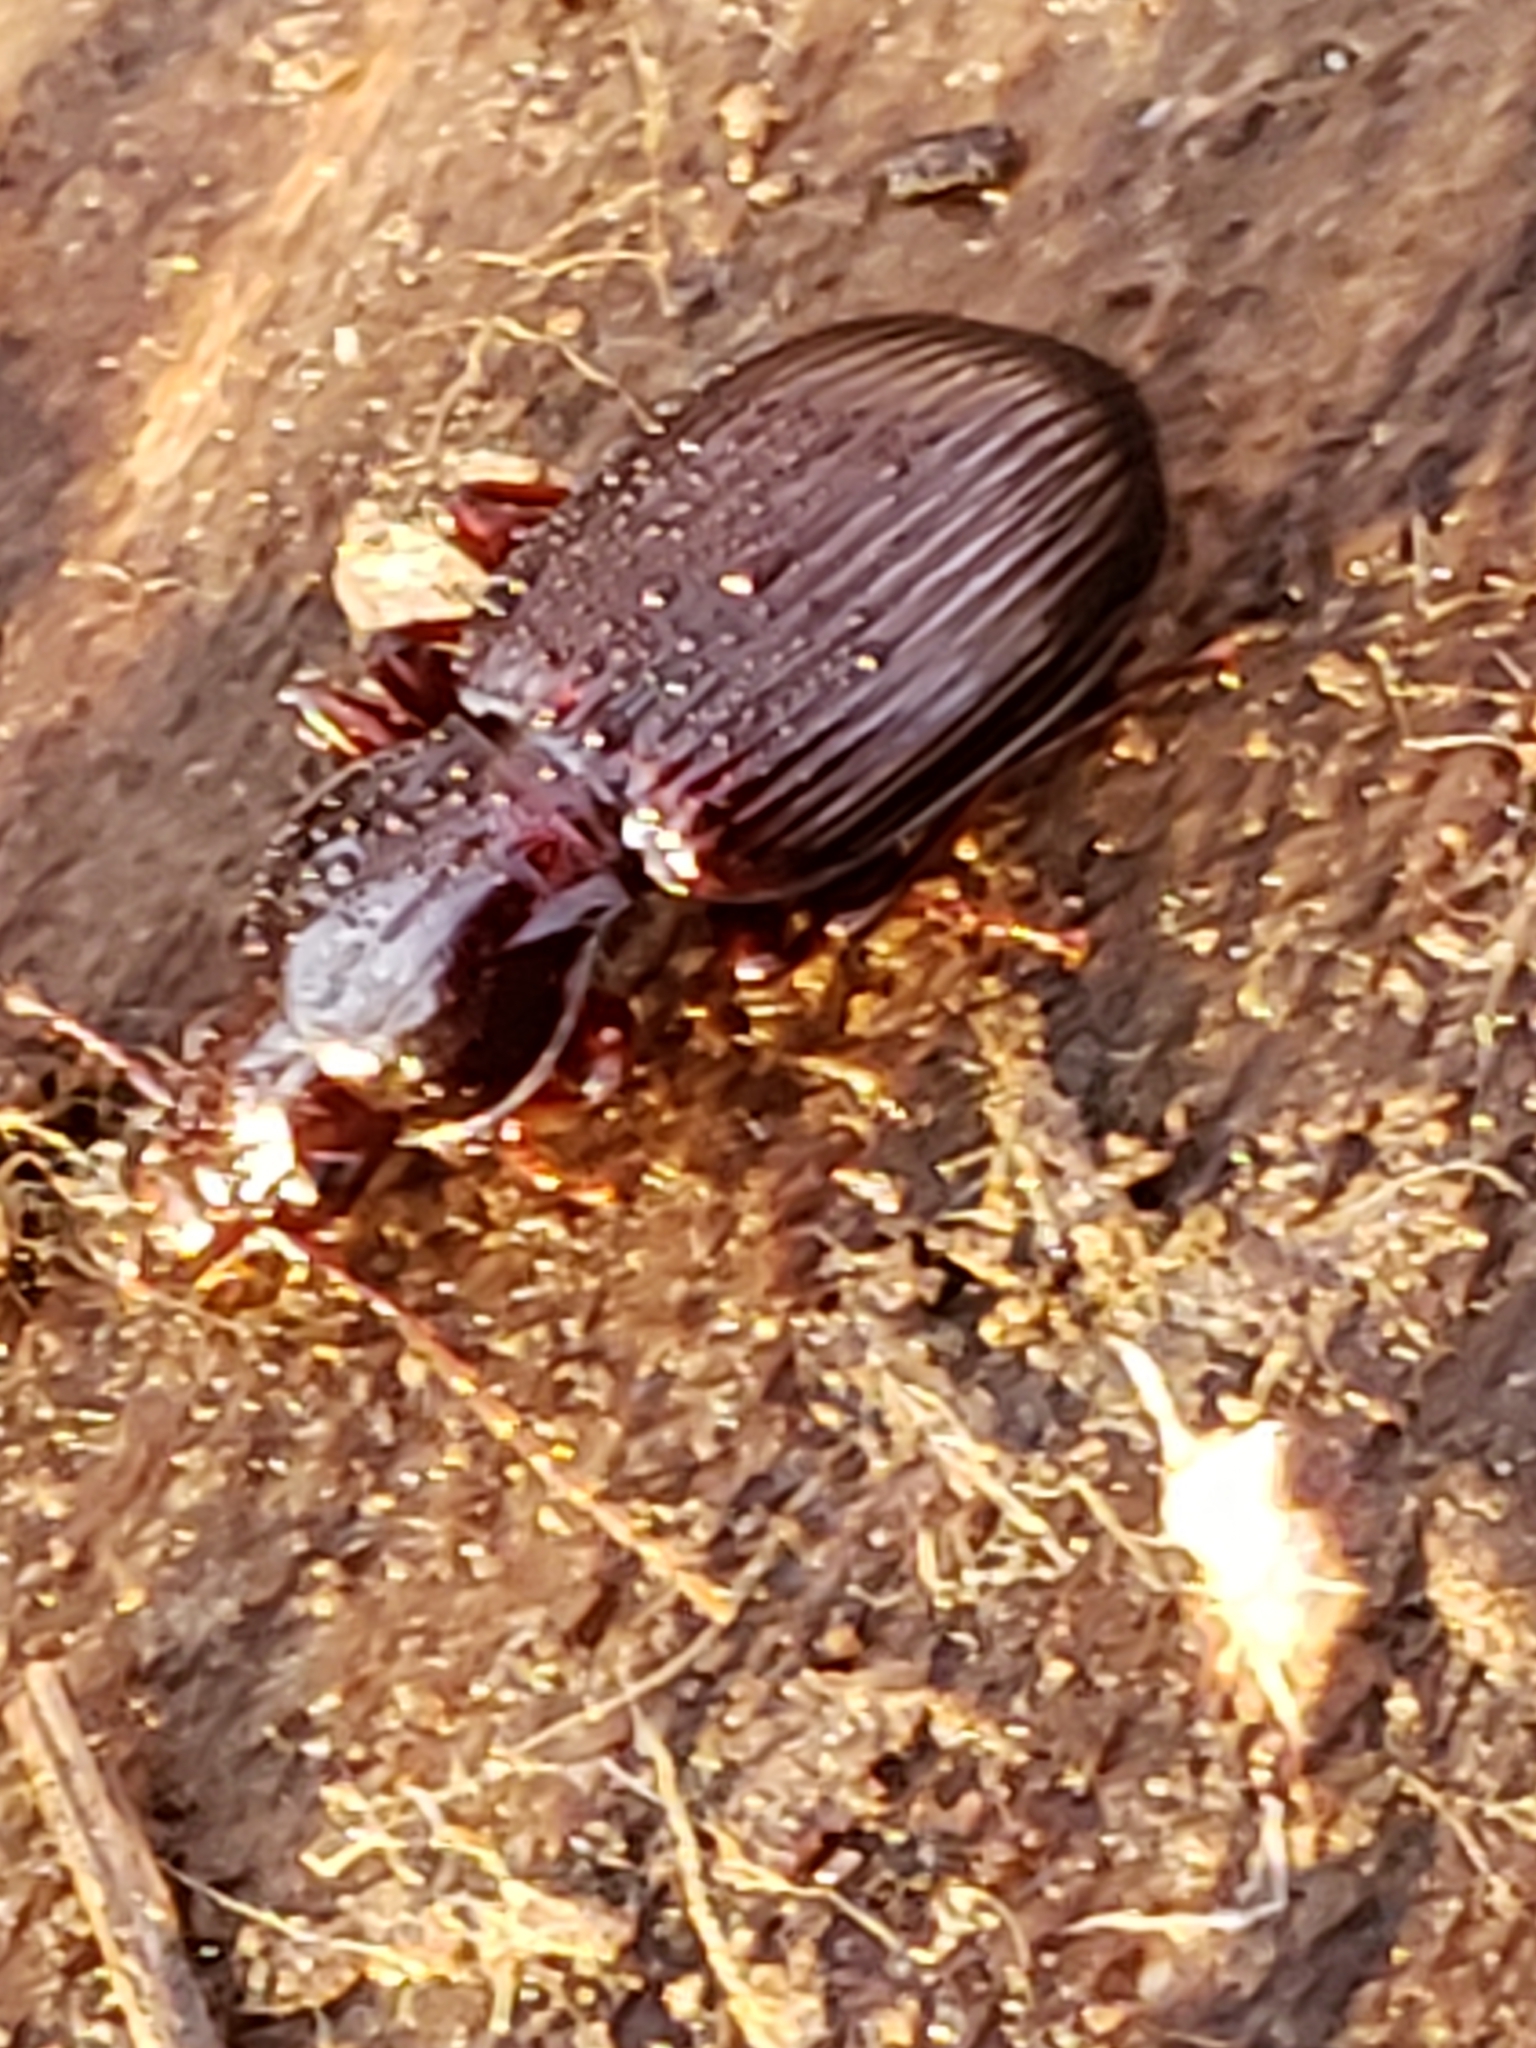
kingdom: Animalia
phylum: Arthropoda
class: Insecta
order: Coleoptera
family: Carabidae
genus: Gastrellarius
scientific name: Gastrellarius honestus
